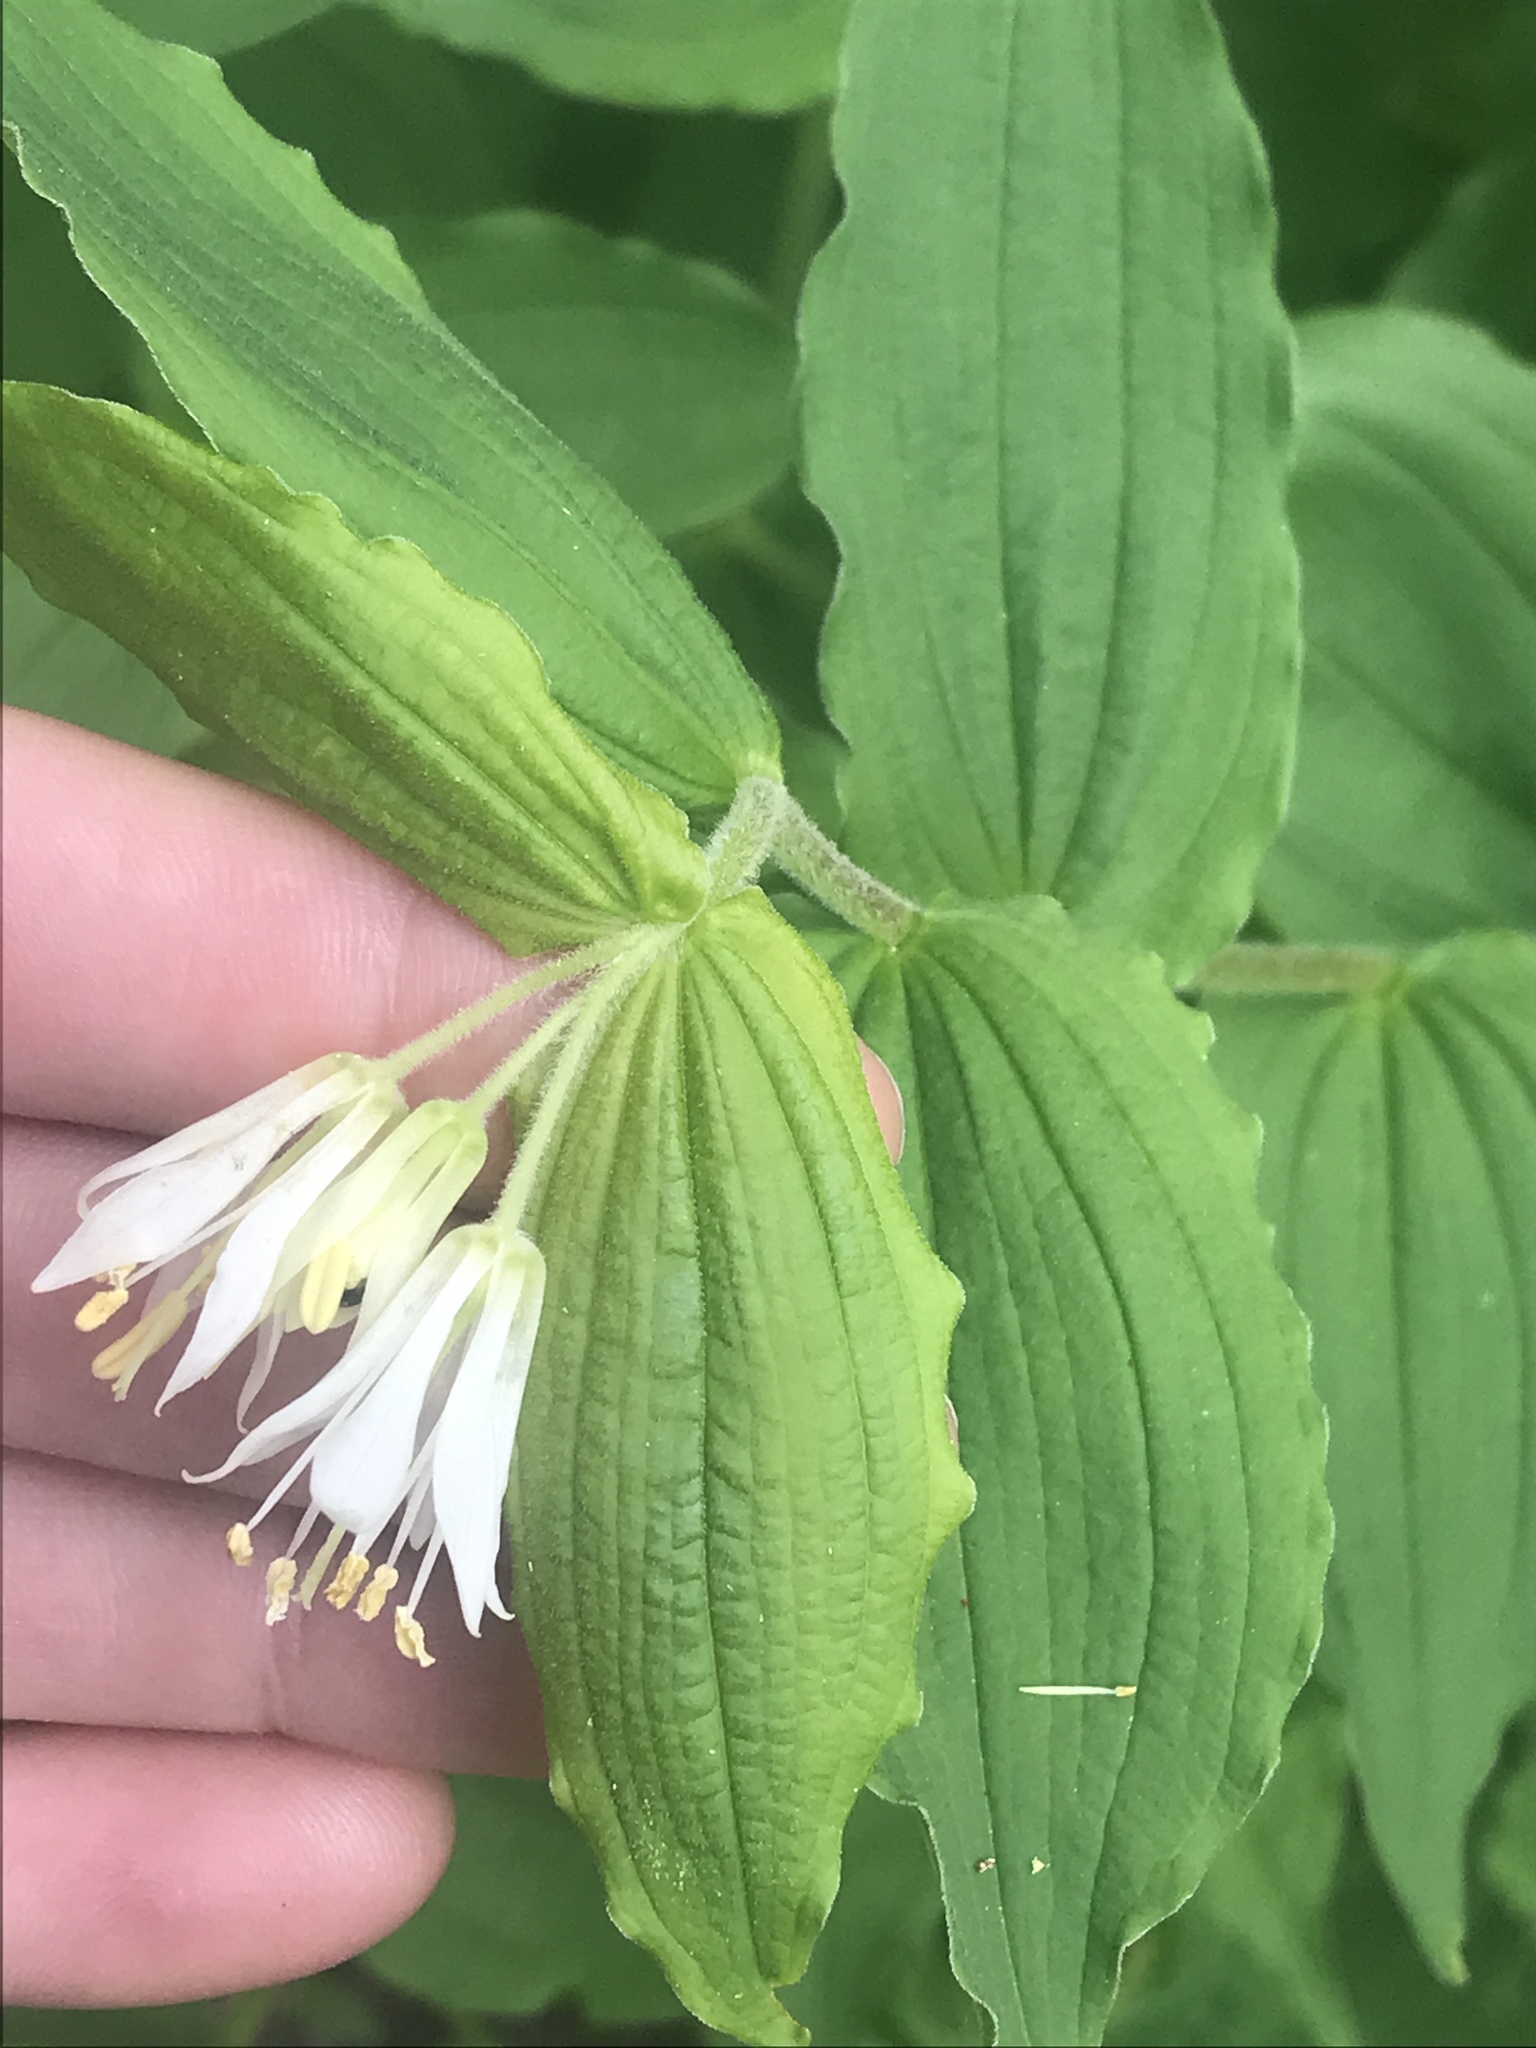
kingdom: Plantae
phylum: Tracheophyta
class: Liliopsida
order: Liliales
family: Liliaceae
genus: Prosartes
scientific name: Prosartes hookeri
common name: Fairy-bells
